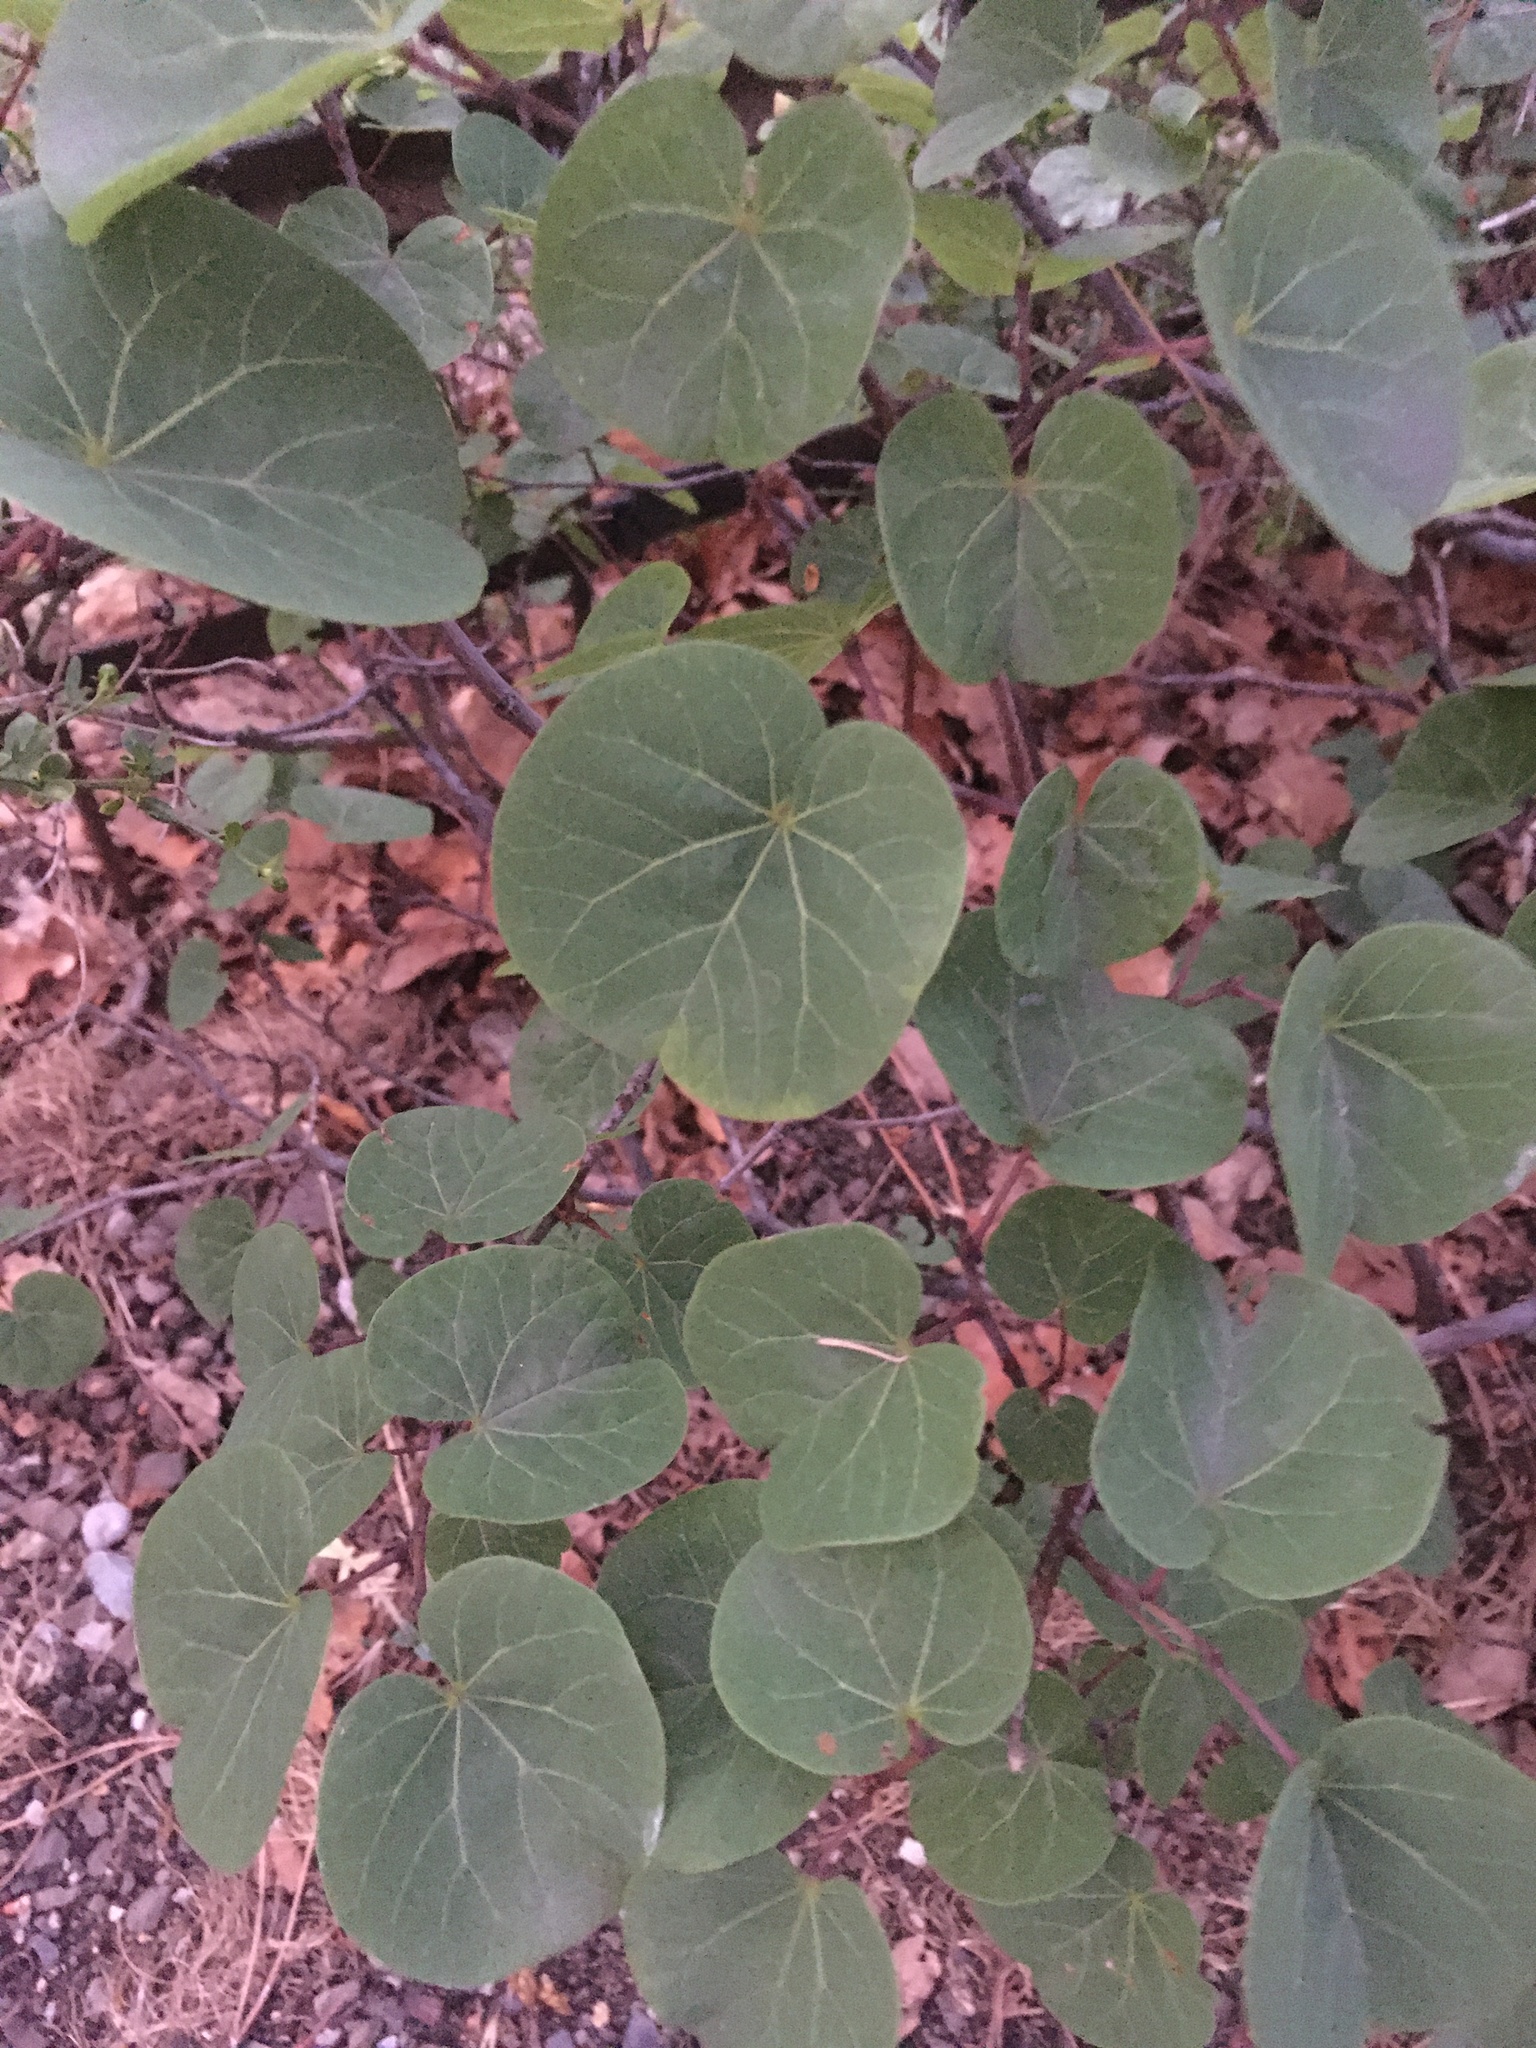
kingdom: Plantae
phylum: Tracheophyta
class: Magnoliopsida
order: Fabales
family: Fabaceae
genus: Cercis
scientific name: Cercis siliquastrum
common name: Judas tree
